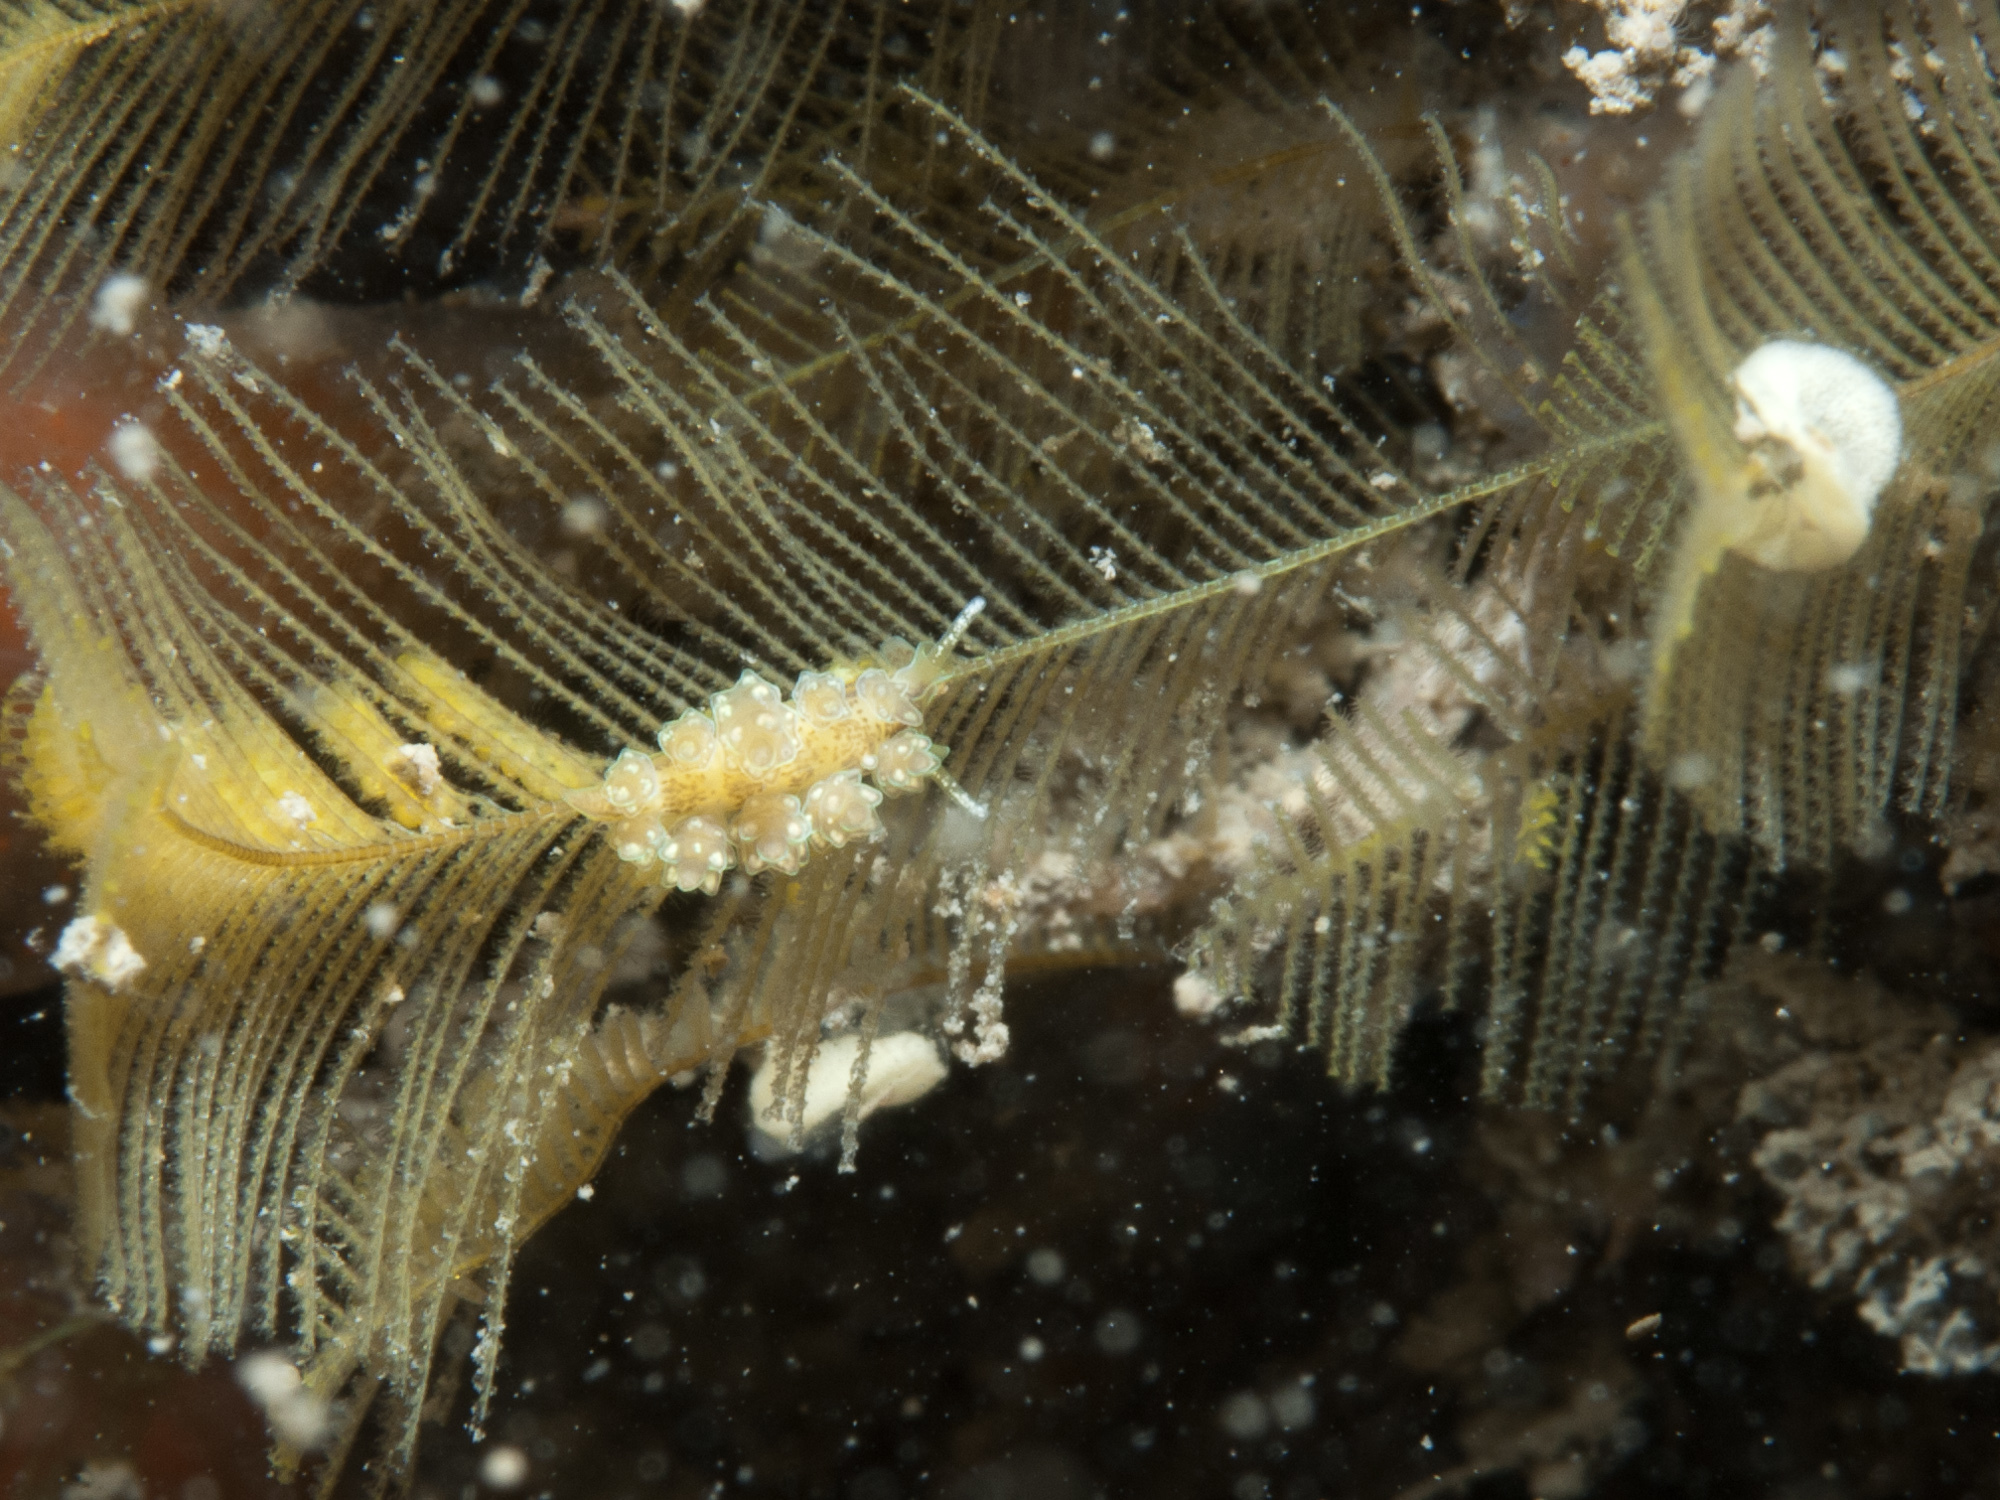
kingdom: Animalia
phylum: Mollusca
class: Gastropoda
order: Nudibranchia
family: Dotidae
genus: Doto
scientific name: Doto lemchei
